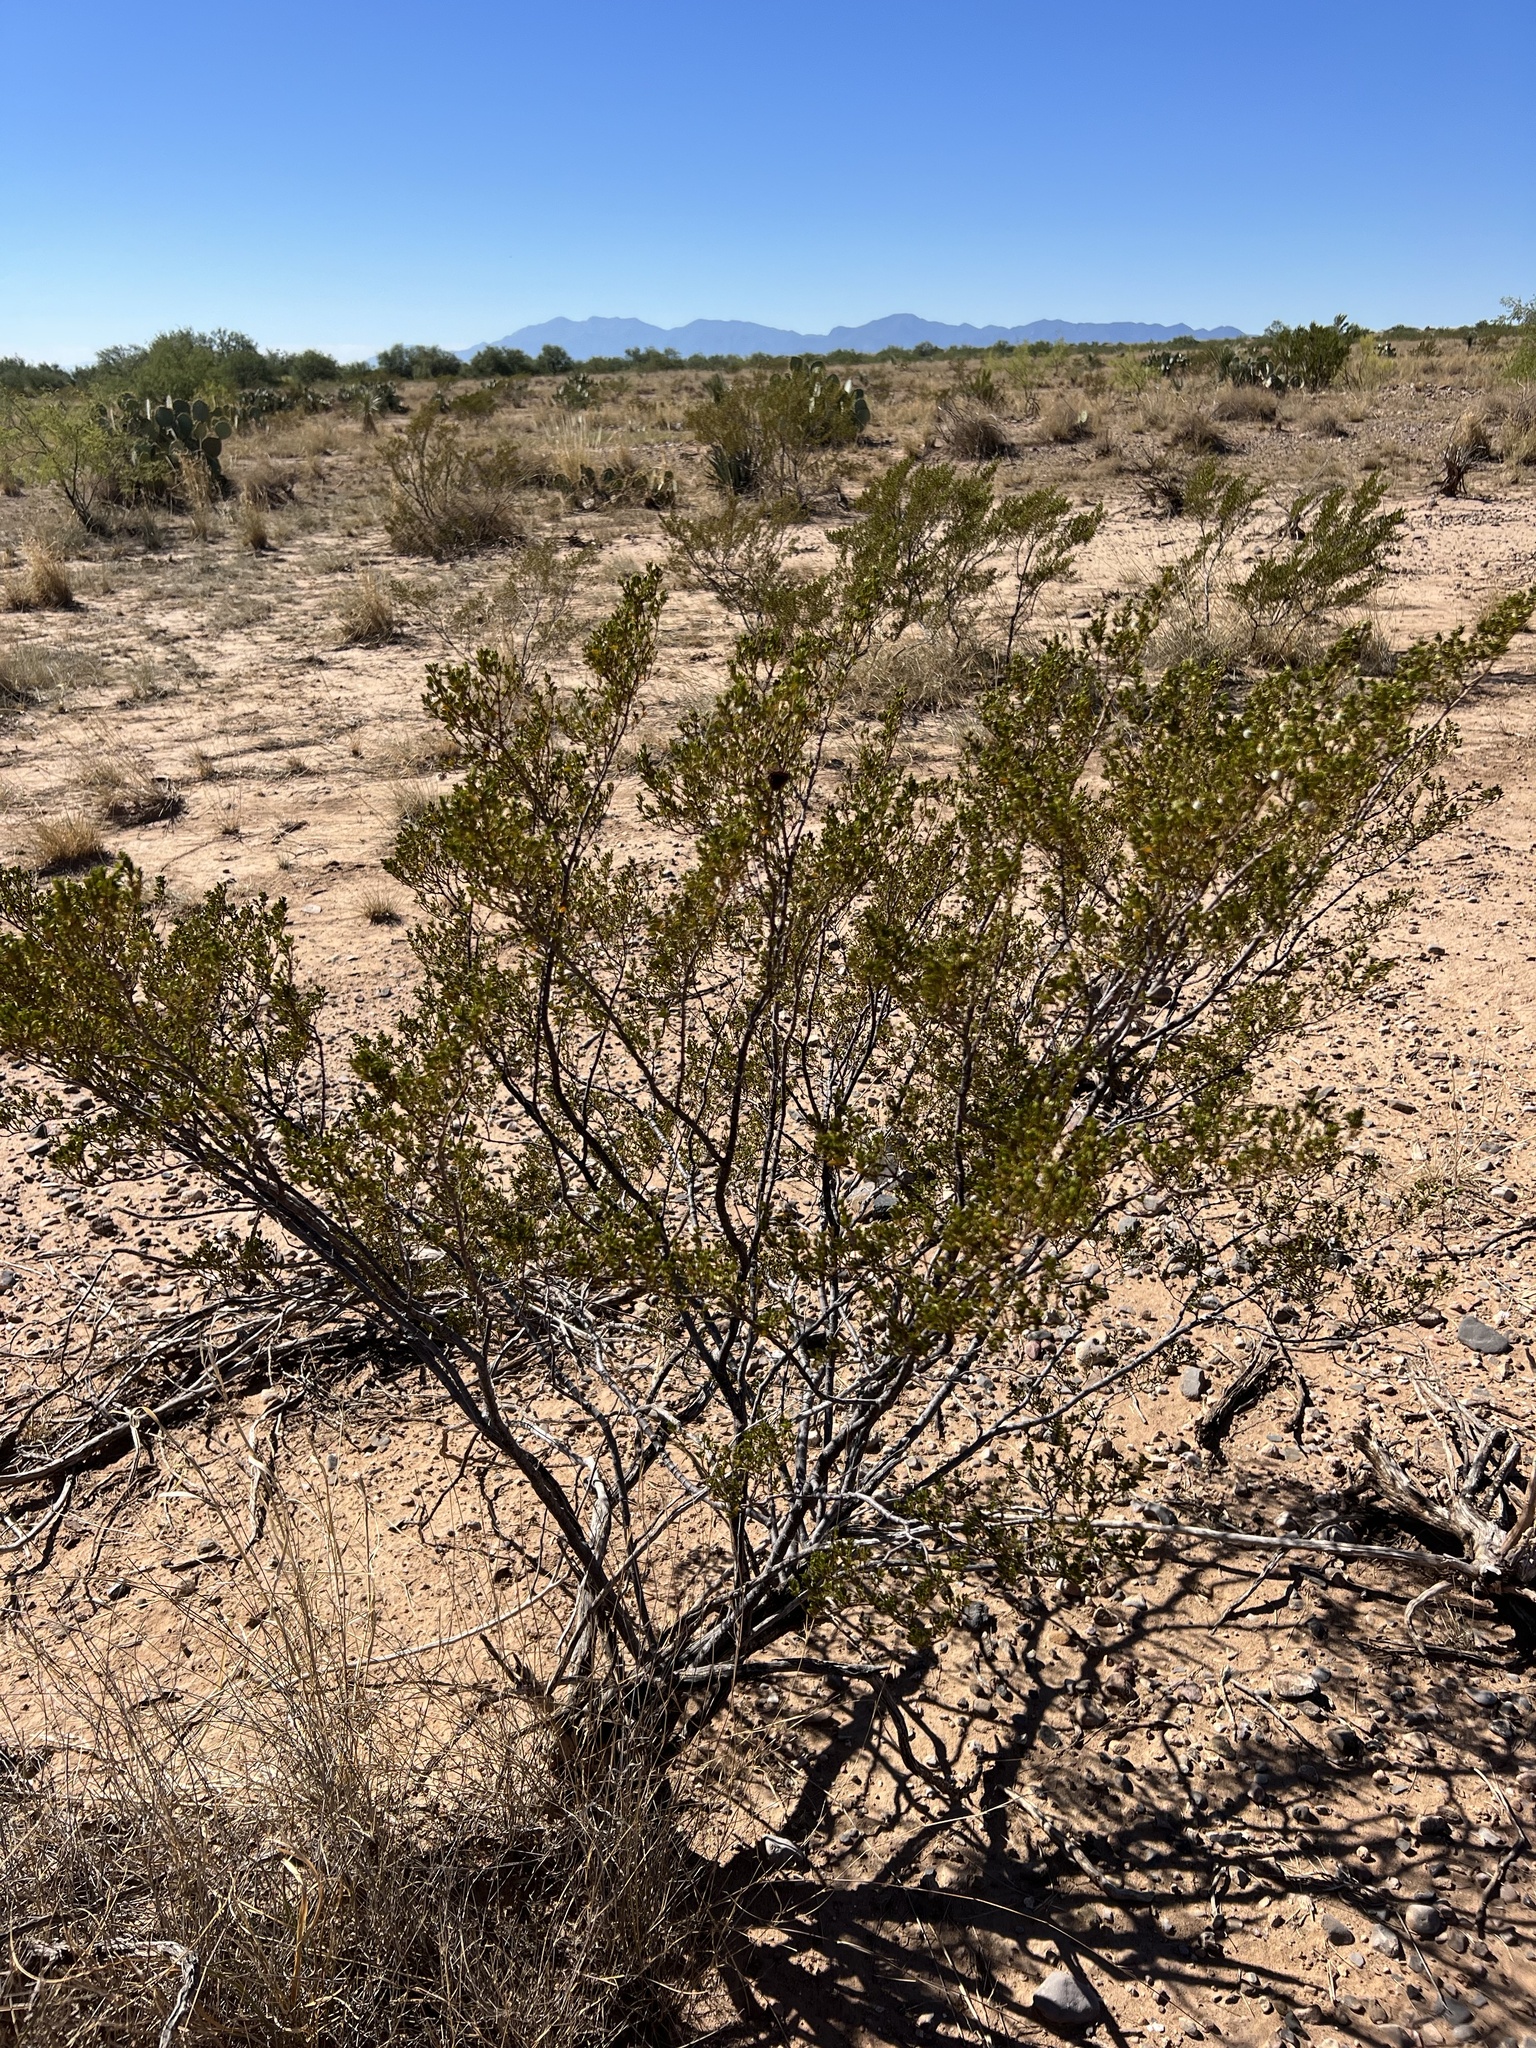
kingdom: Plantae
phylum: Tracheophyta
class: Magnoliopsida
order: Zygophyllales
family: Zygophyllaceae
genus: Larrea
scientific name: Larrea tridentata
